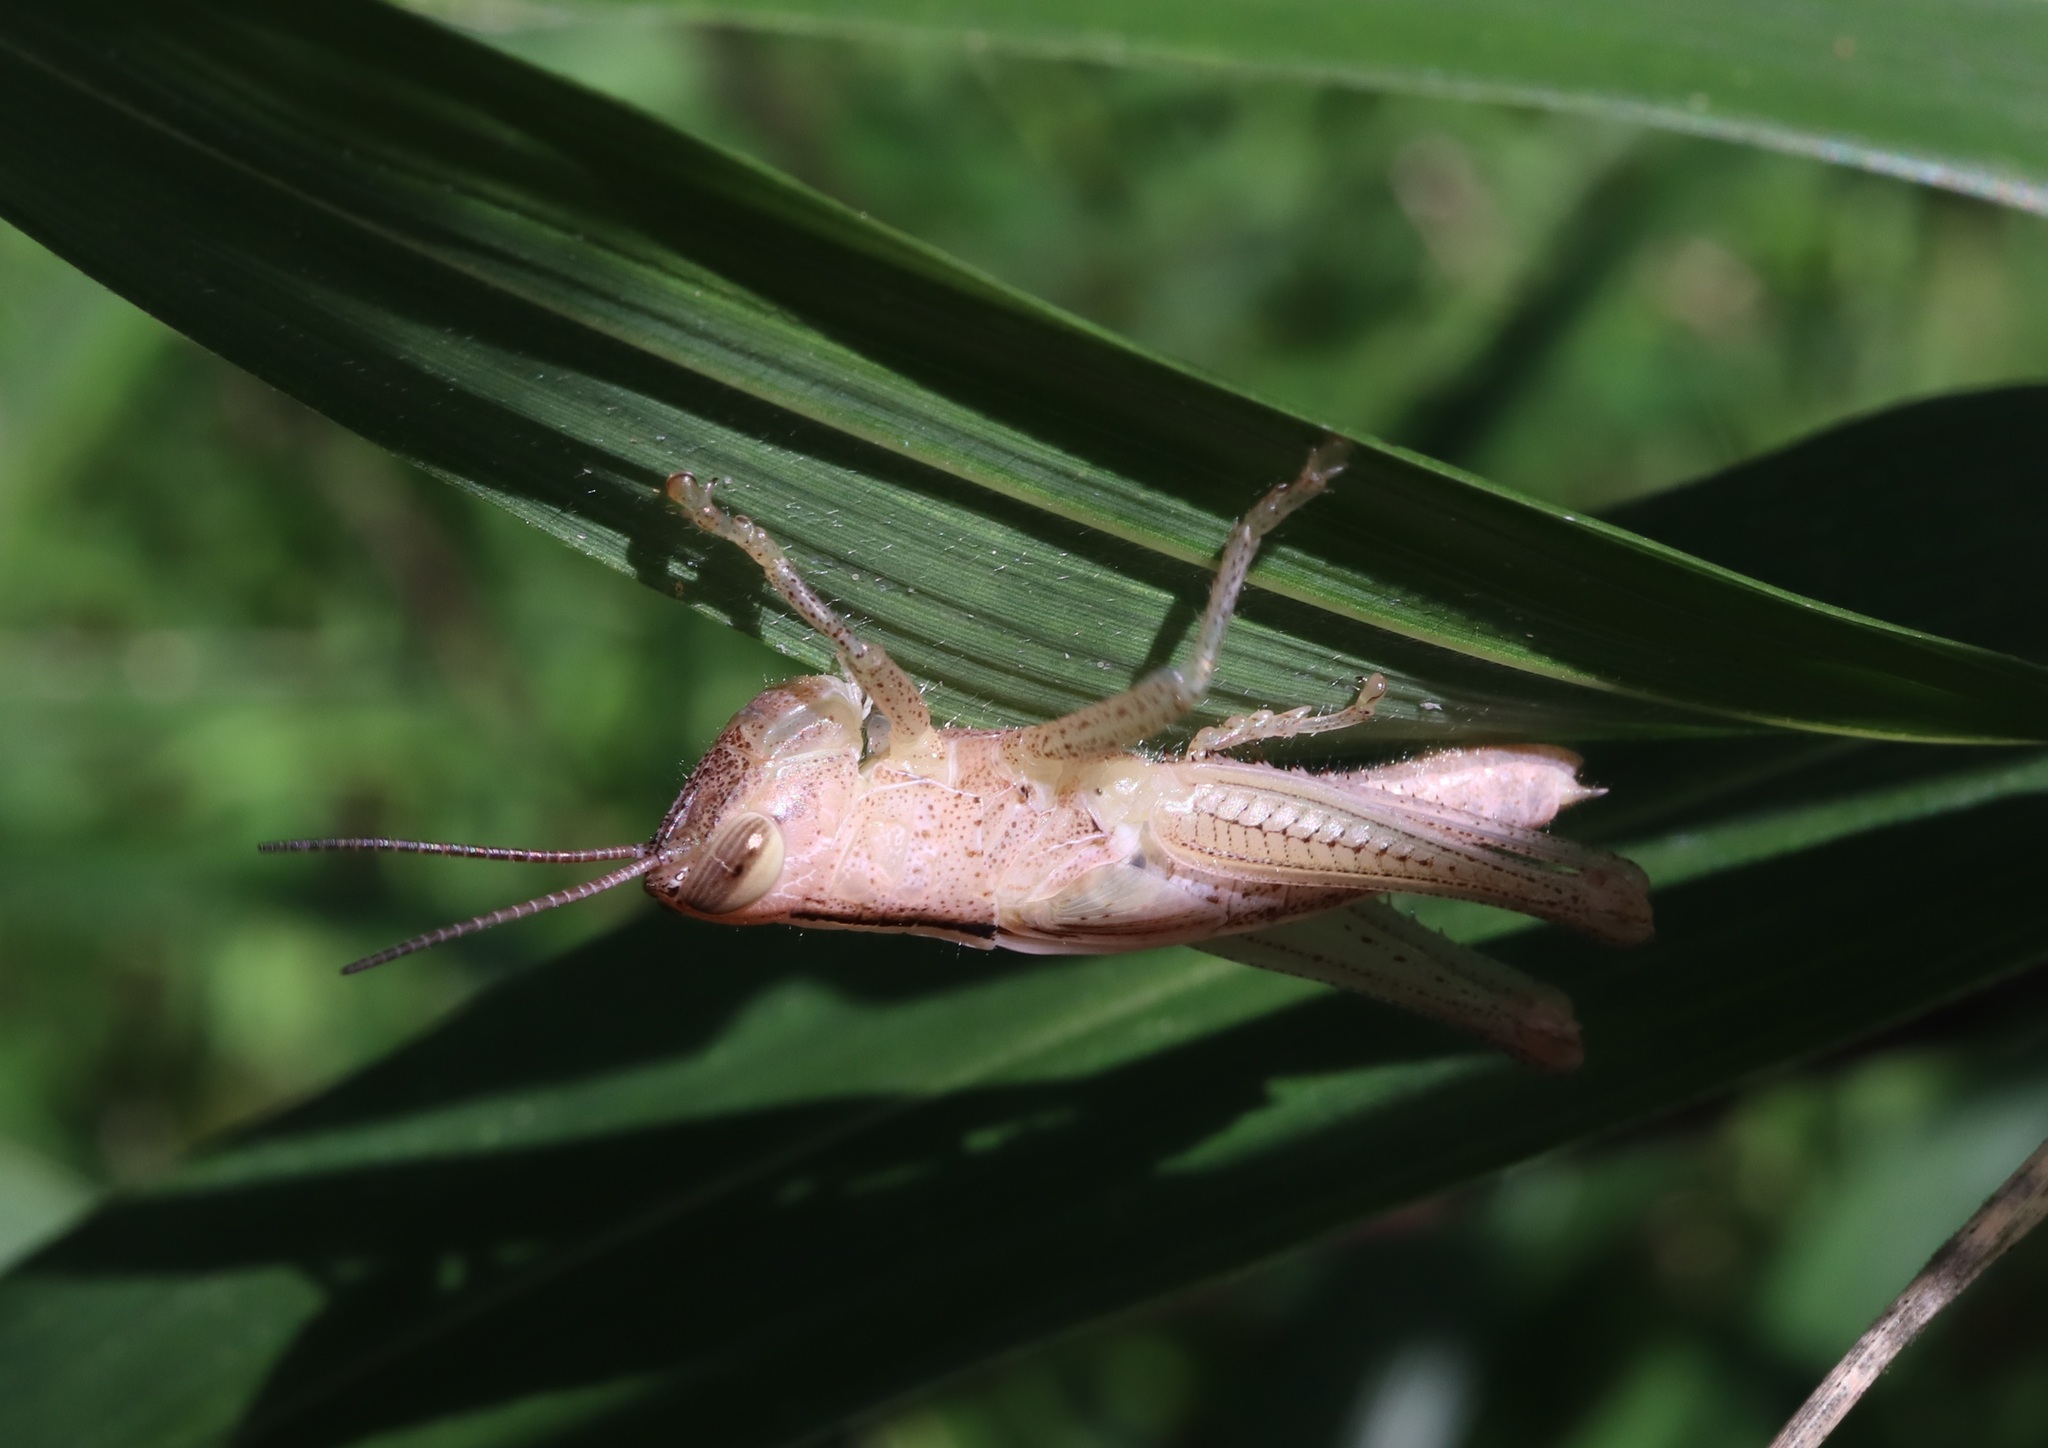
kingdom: Animalia
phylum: Arthropoda
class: Insecta
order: Orthoptera
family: Acrididae
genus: Oxya
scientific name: Oxya yezoensis
